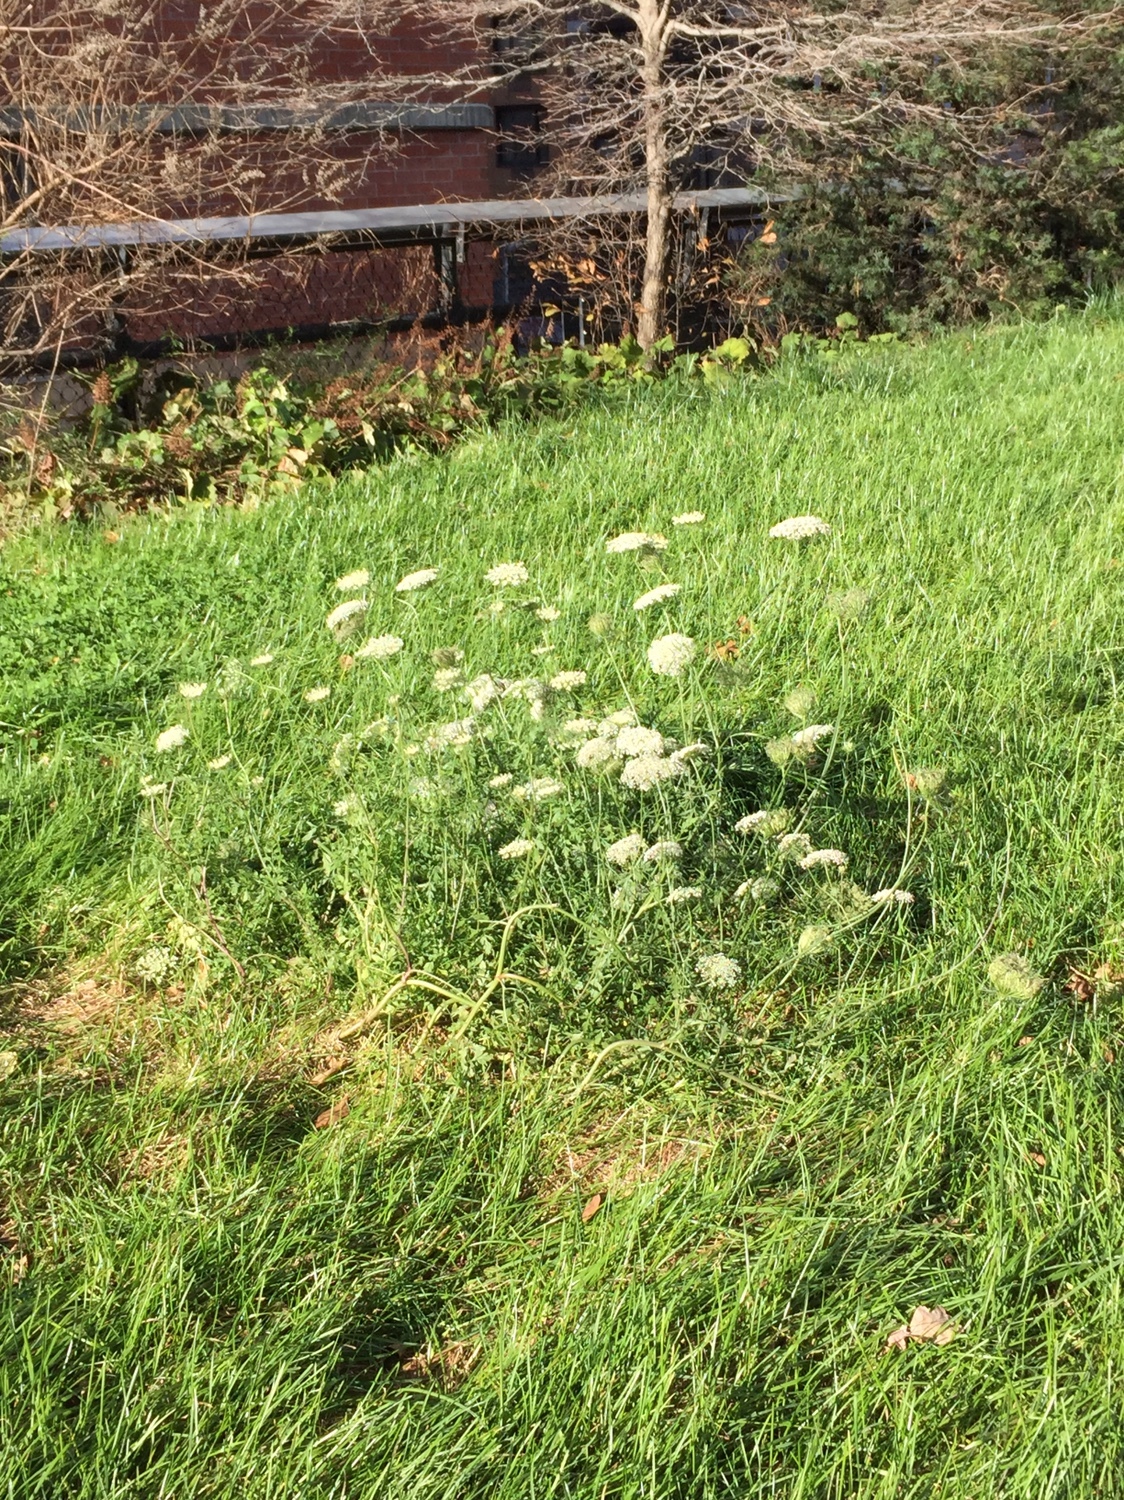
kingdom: Plantae
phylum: Tracheophyta
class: Magnoliopsida
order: Apiales
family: Apiaceae
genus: Daucus
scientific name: Daucus carota
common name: Wild carrot
